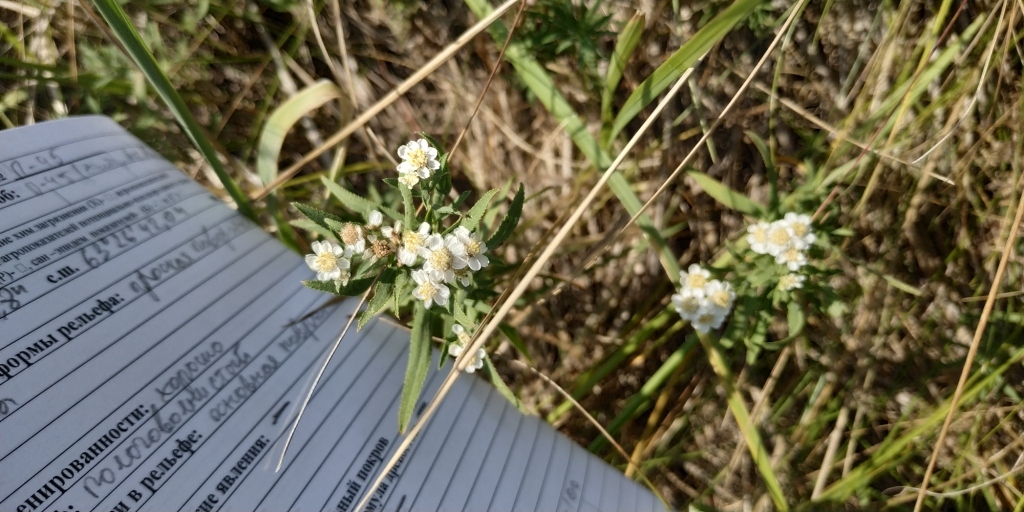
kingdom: Plantae
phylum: Tracheophyta
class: Magnoliopsida
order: Asterales
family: Asteraceae
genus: Achillea
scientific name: Achillea salicifolia
